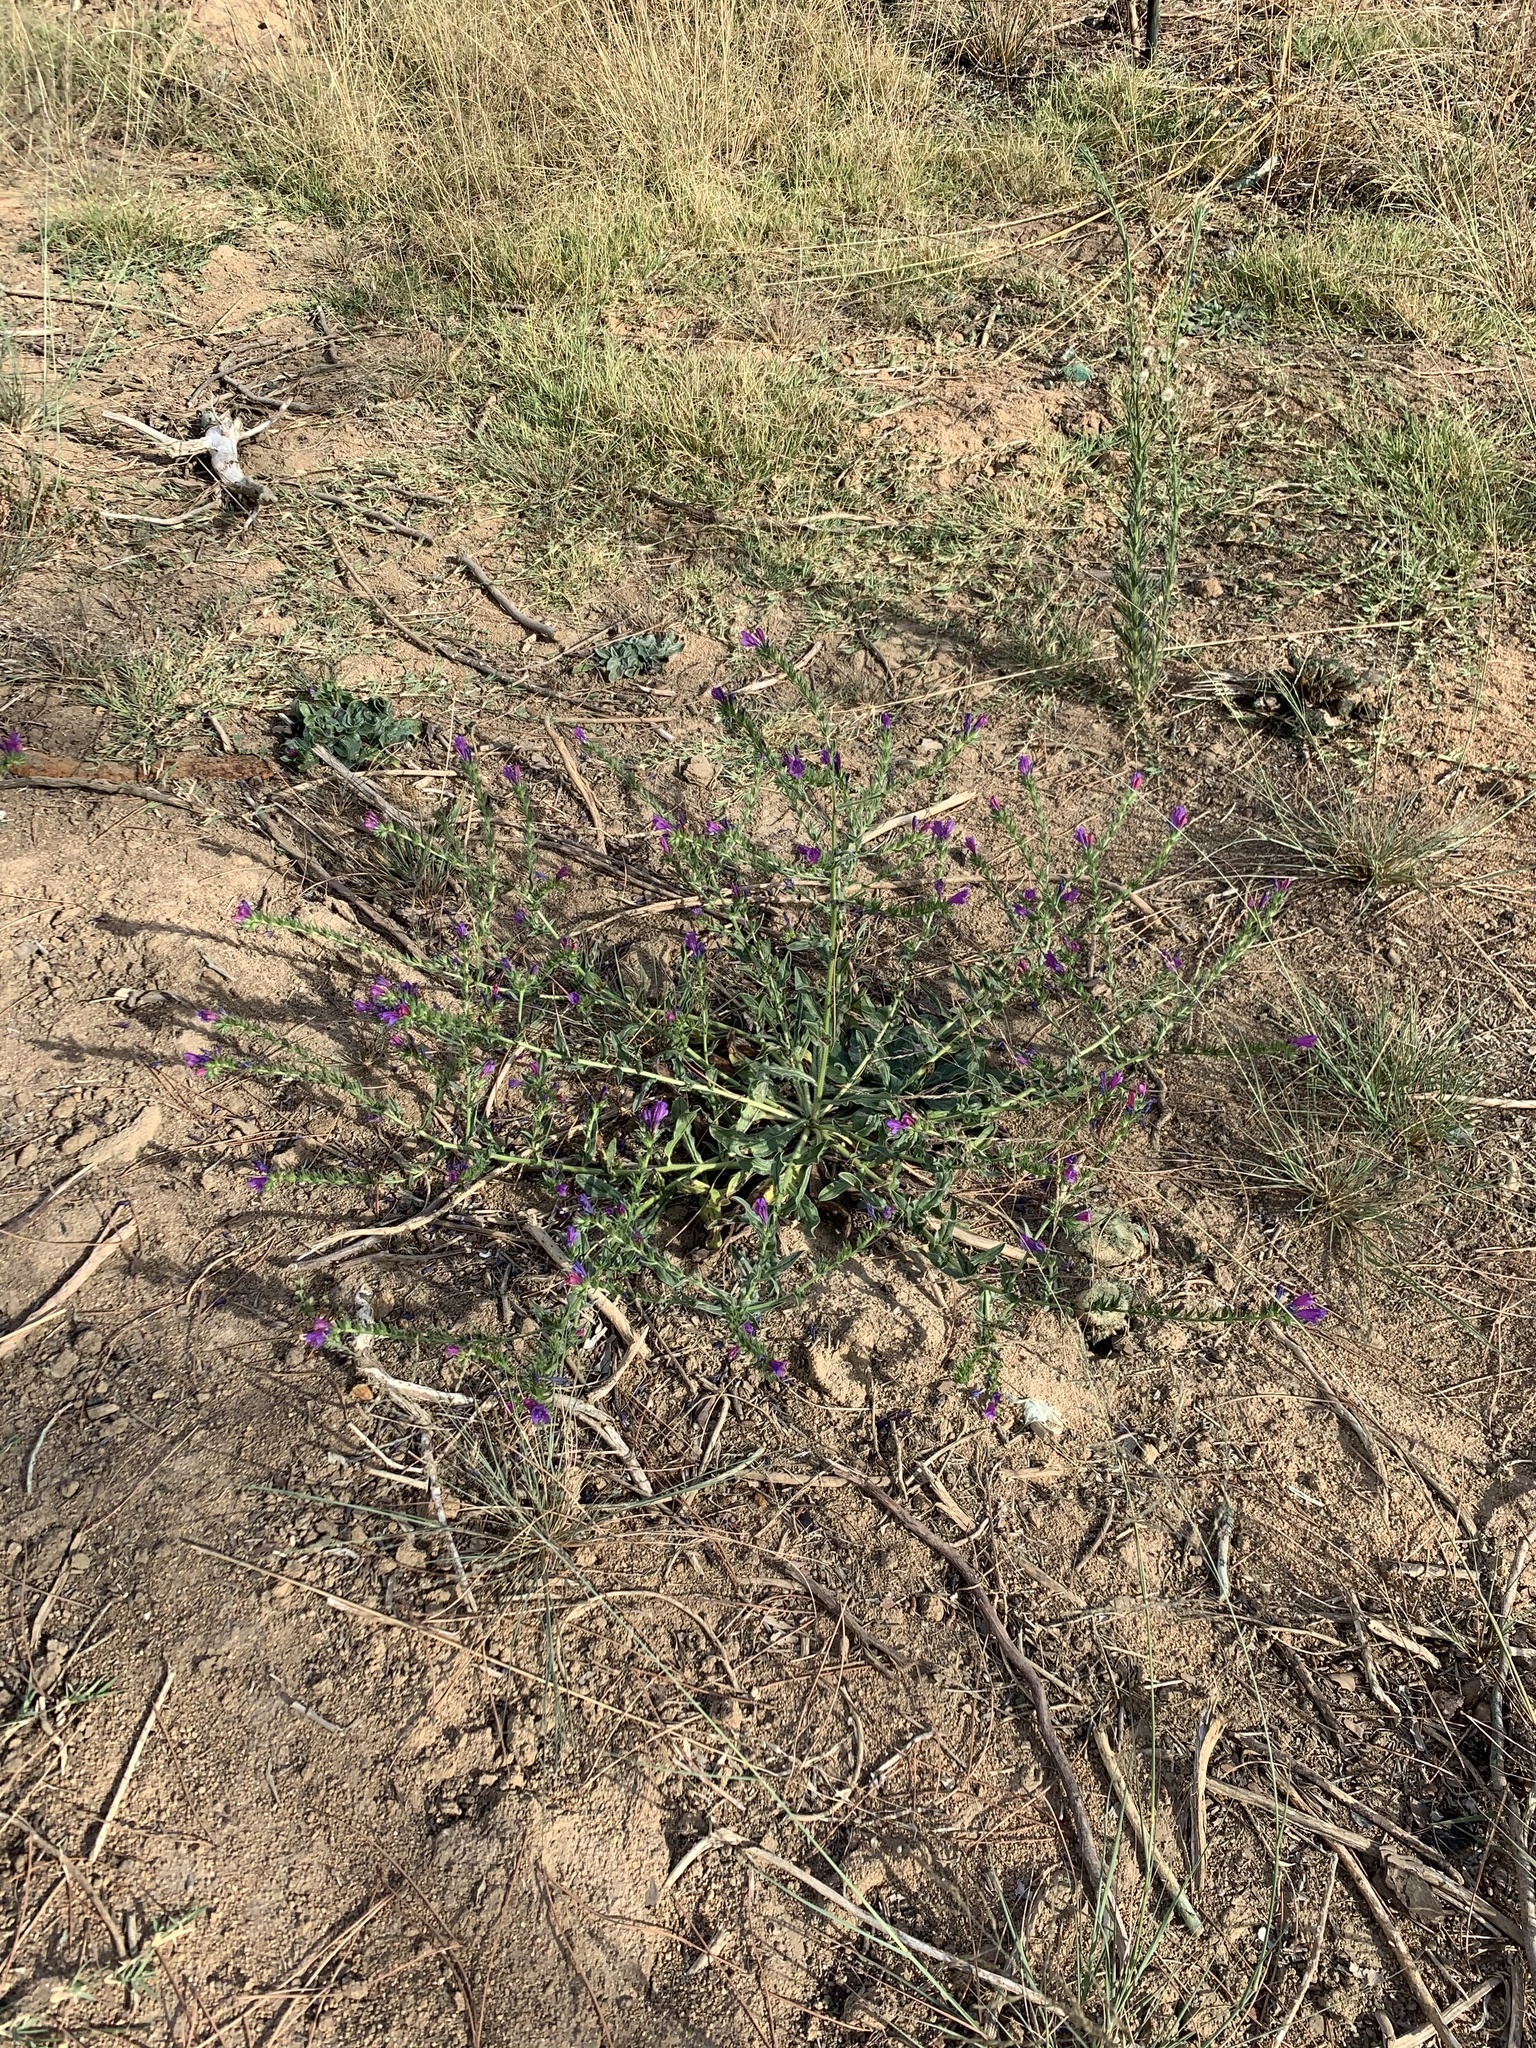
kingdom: Plantae
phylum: Tracheophyta
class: Magnoliopsida
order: Boraginales
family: Boraginaceae
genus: Echium
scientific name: Echium plantagineum
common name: Purple viper's-bugloss
